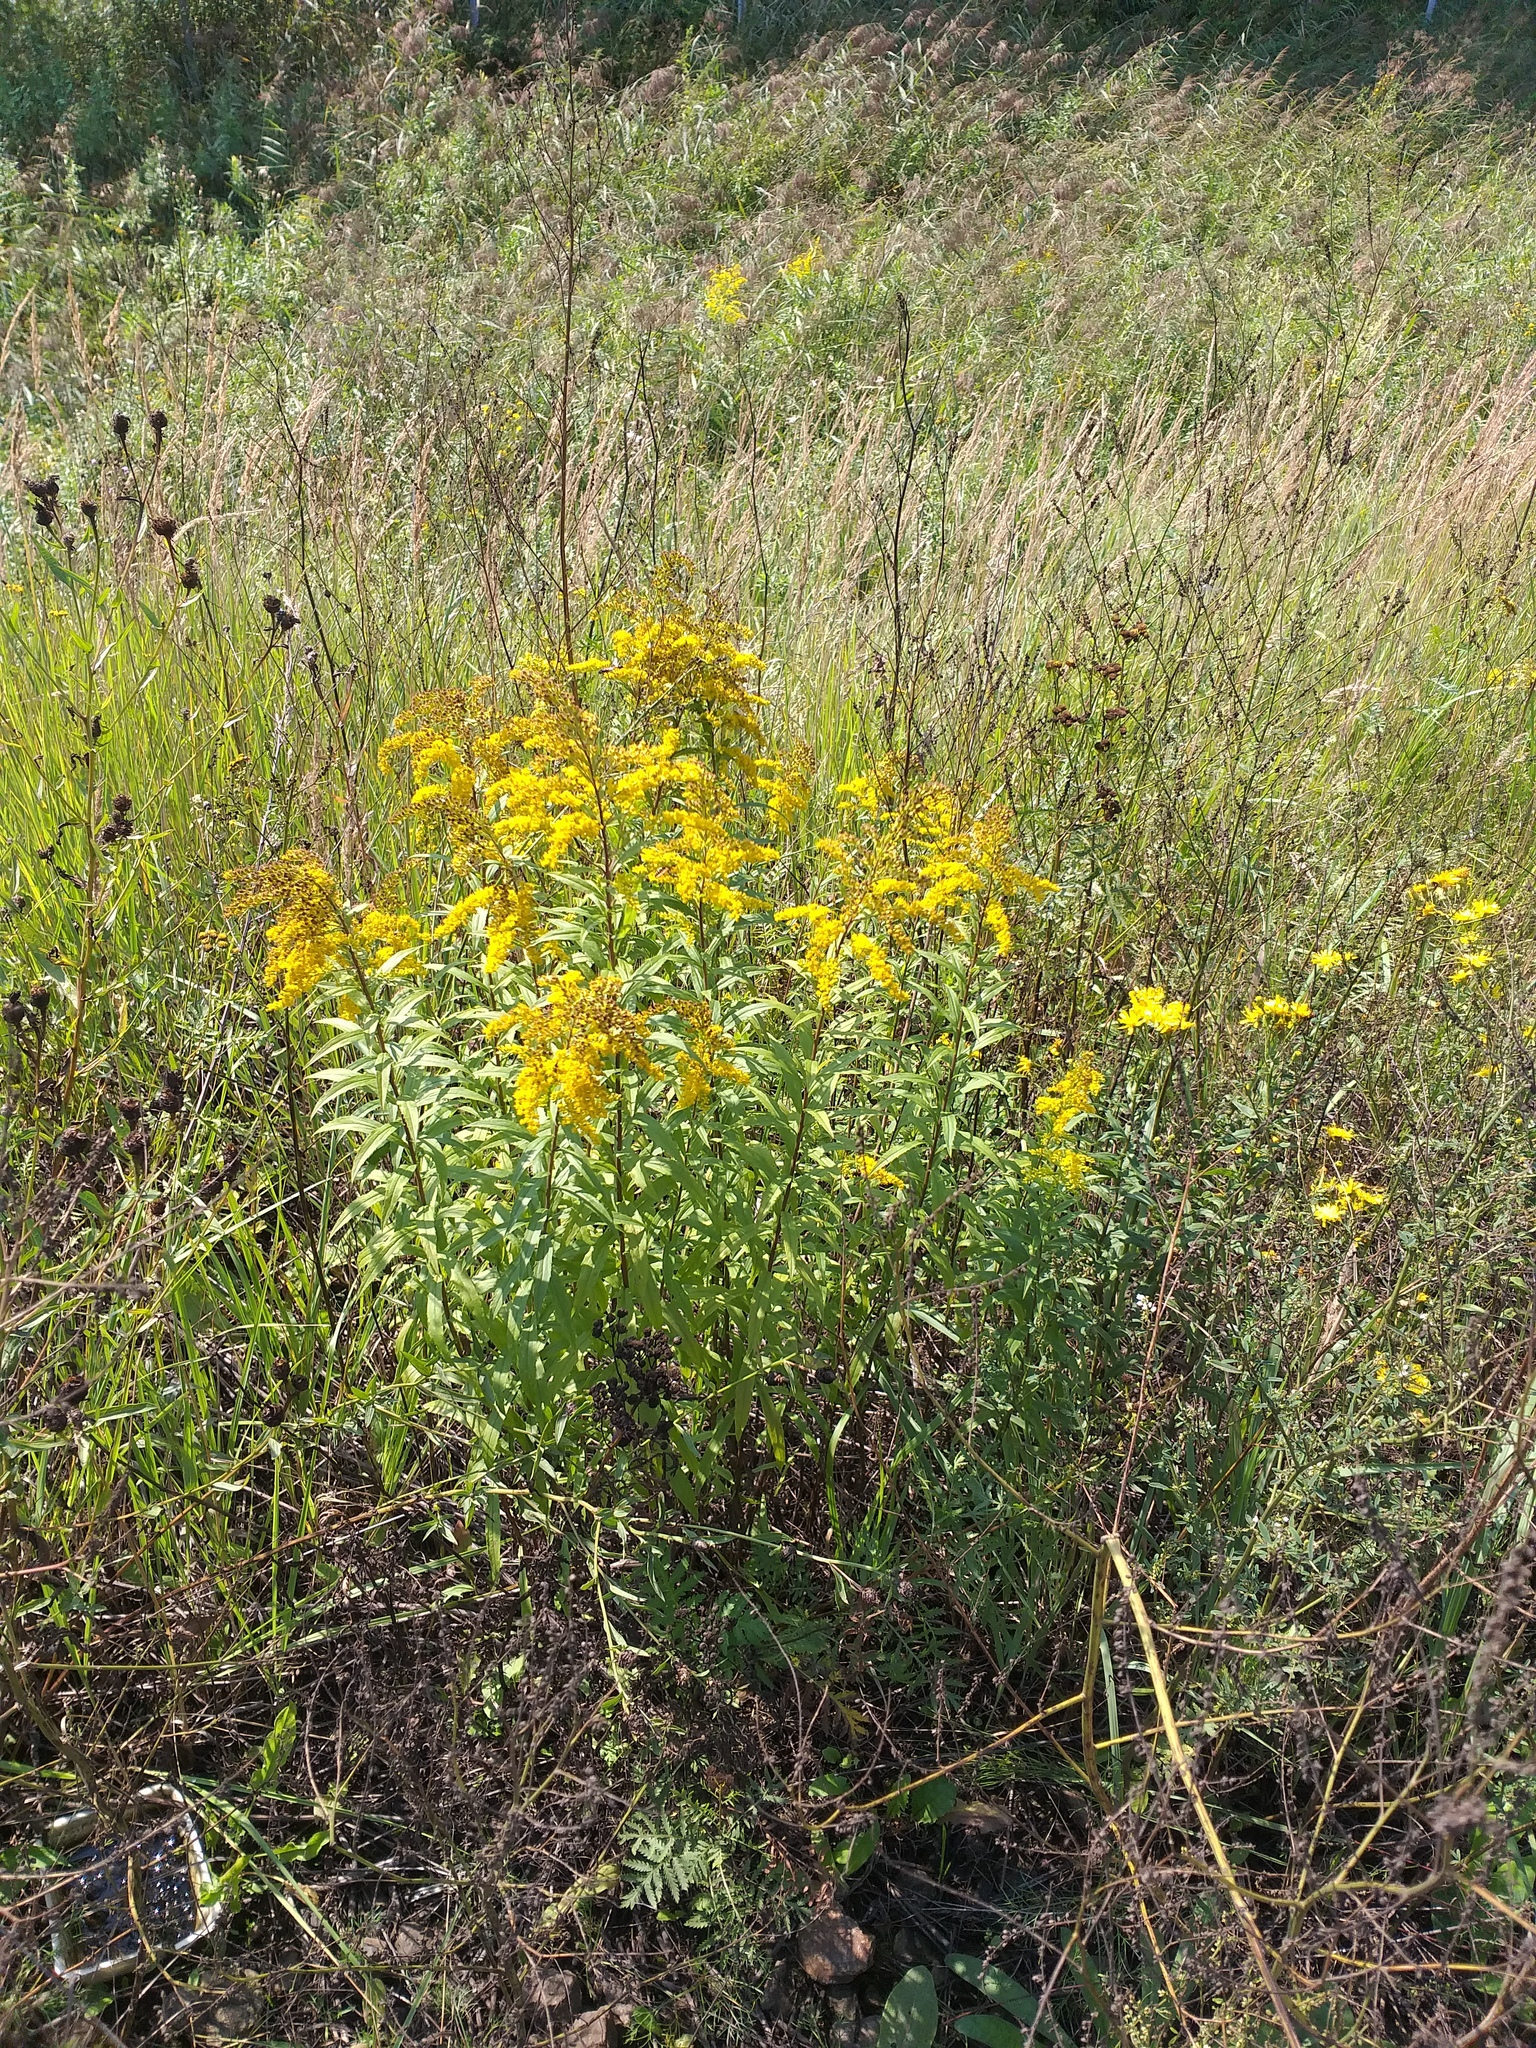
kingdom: Plantae
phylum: Tracheophyta
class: Magnoliopsida
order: Asterales
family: Asteraceae
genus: Solidago
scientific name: Solidago canadensis
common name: Canada goldenrod
